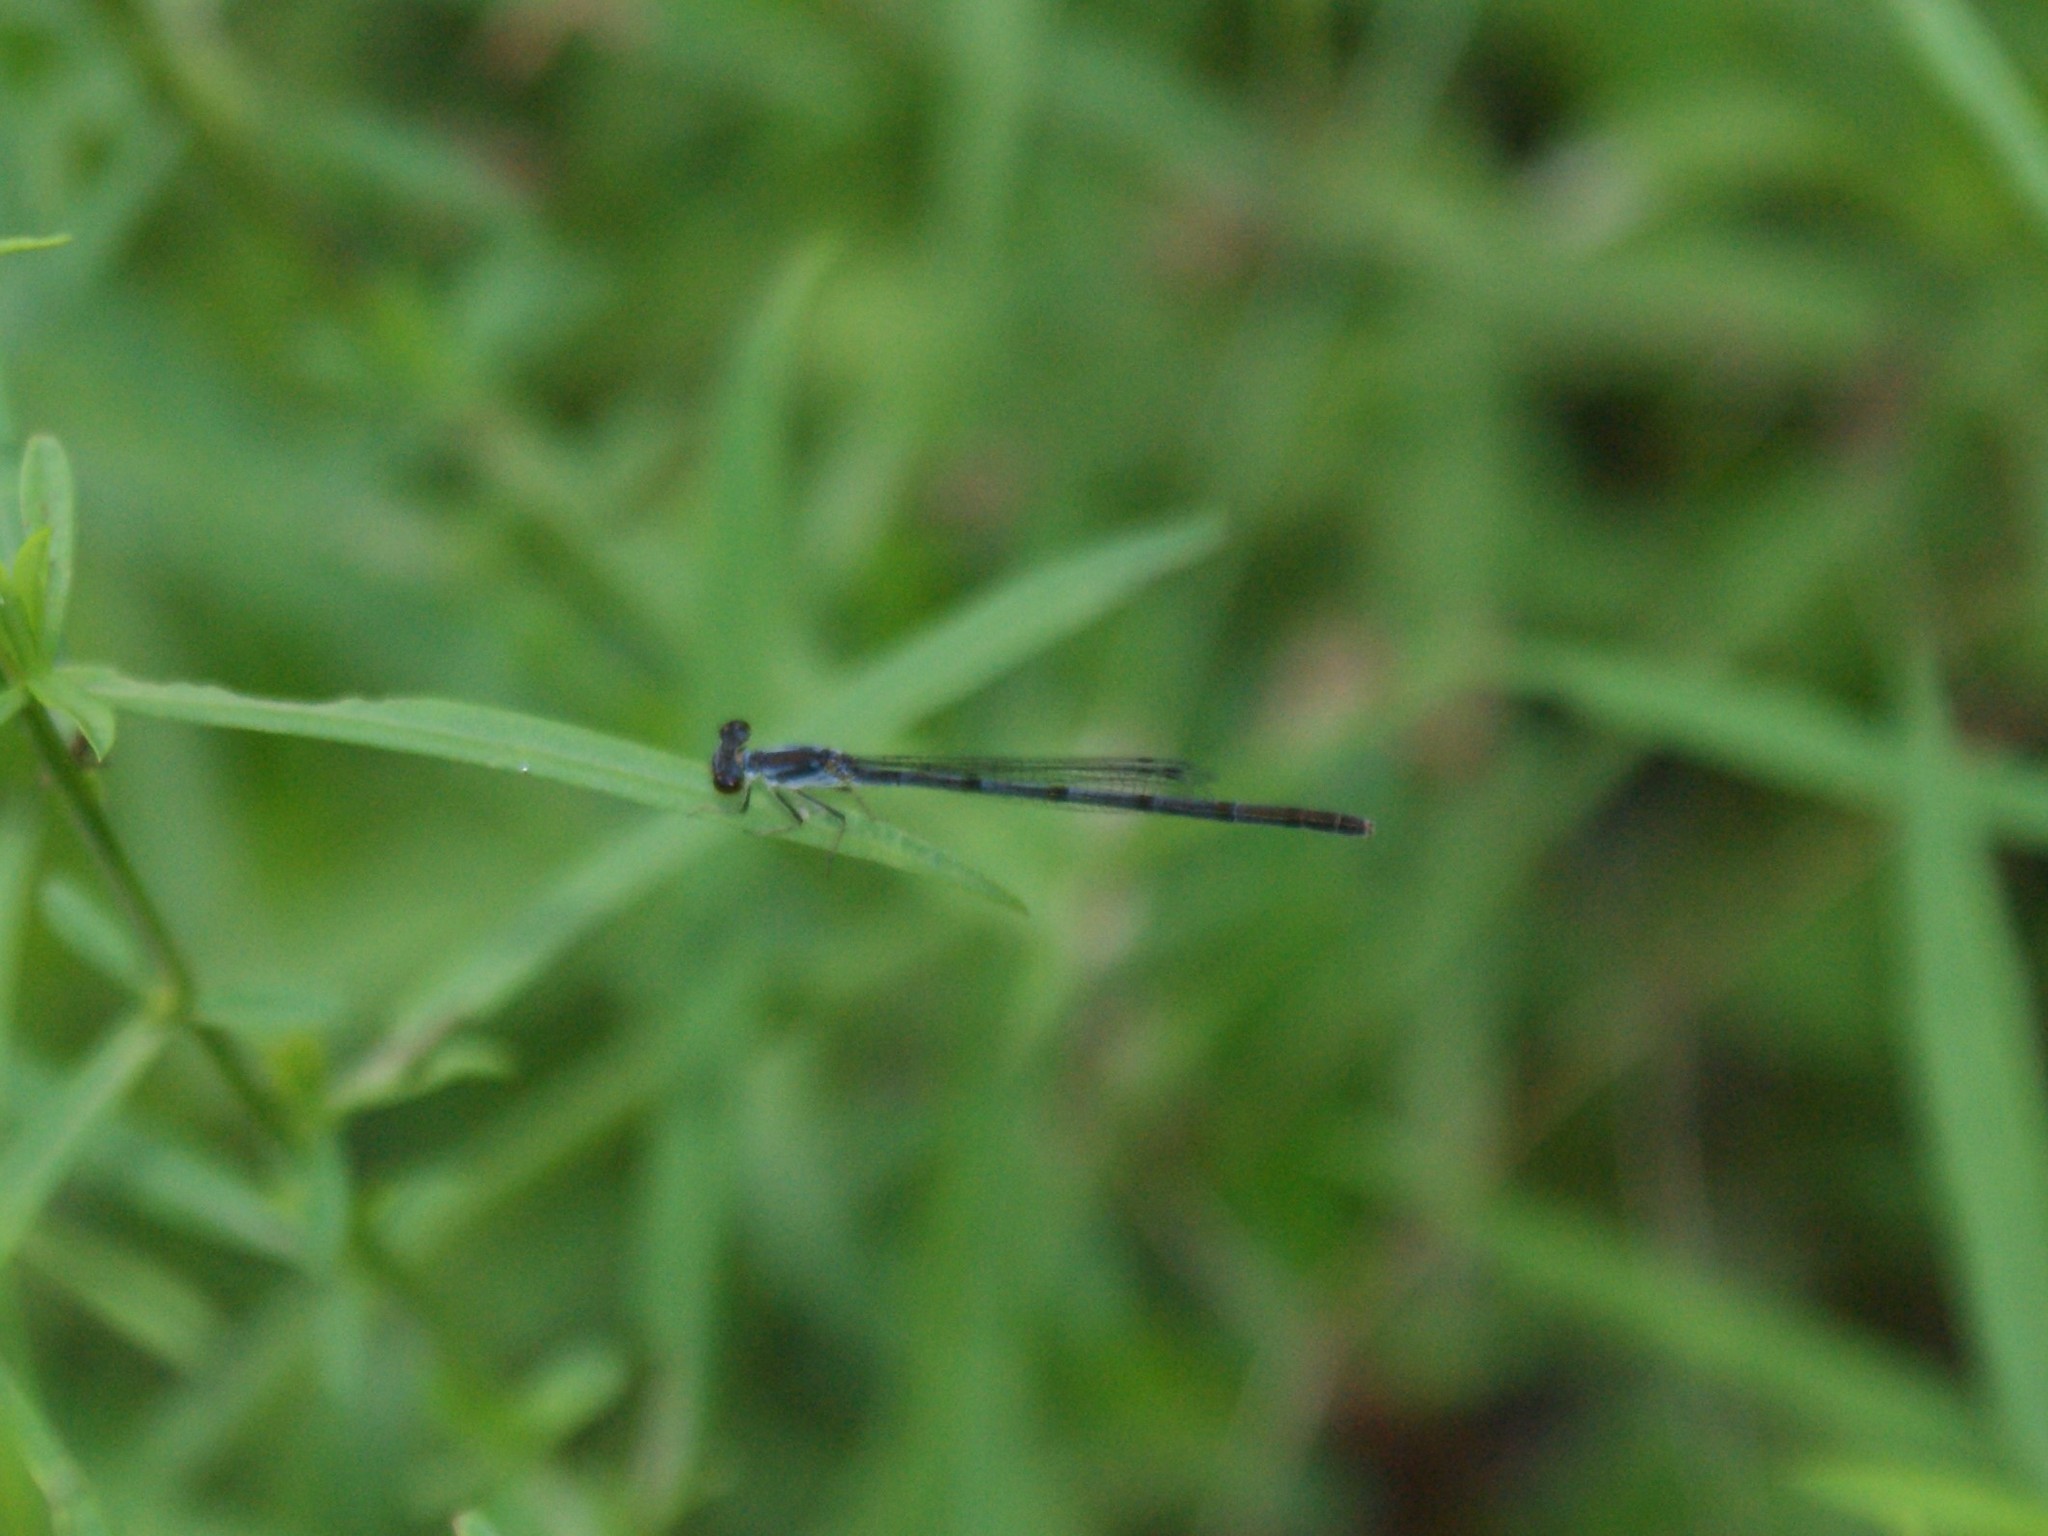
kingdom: Animalia
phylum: Arthropoda
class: Insecta
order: Odonata
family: Coenagrionidae
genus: Ischnura
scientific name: Ischnura posita
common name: Fragile forktail
